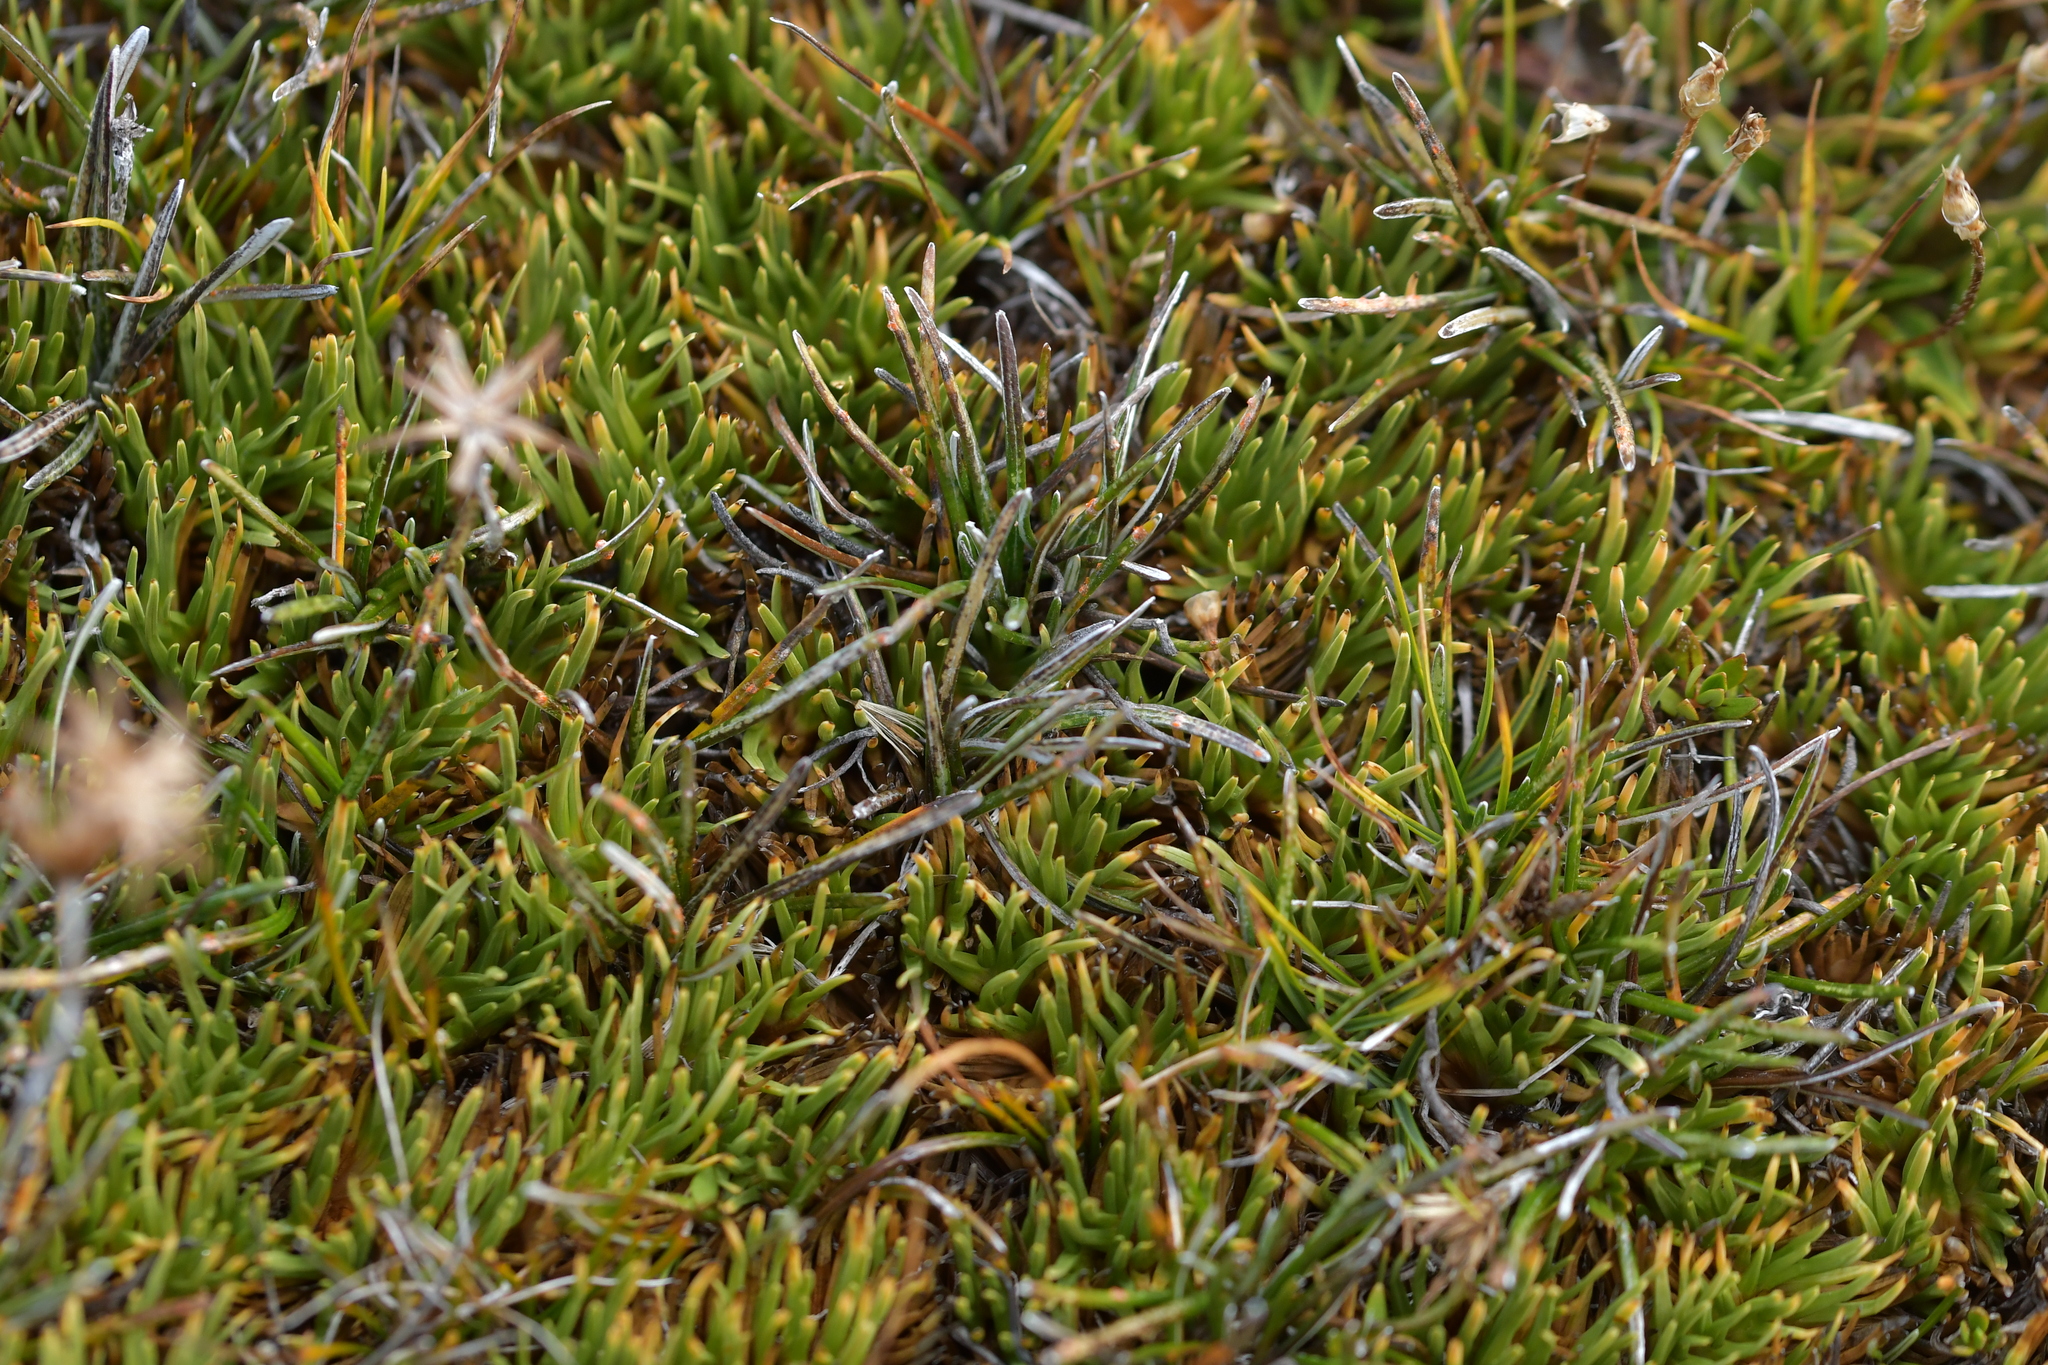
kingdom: Plantae
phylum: Tracheophyta
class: Magnoliopsida
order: Asterales
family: Asteraceae
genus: Celmisia
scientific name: Celmisia alpina
